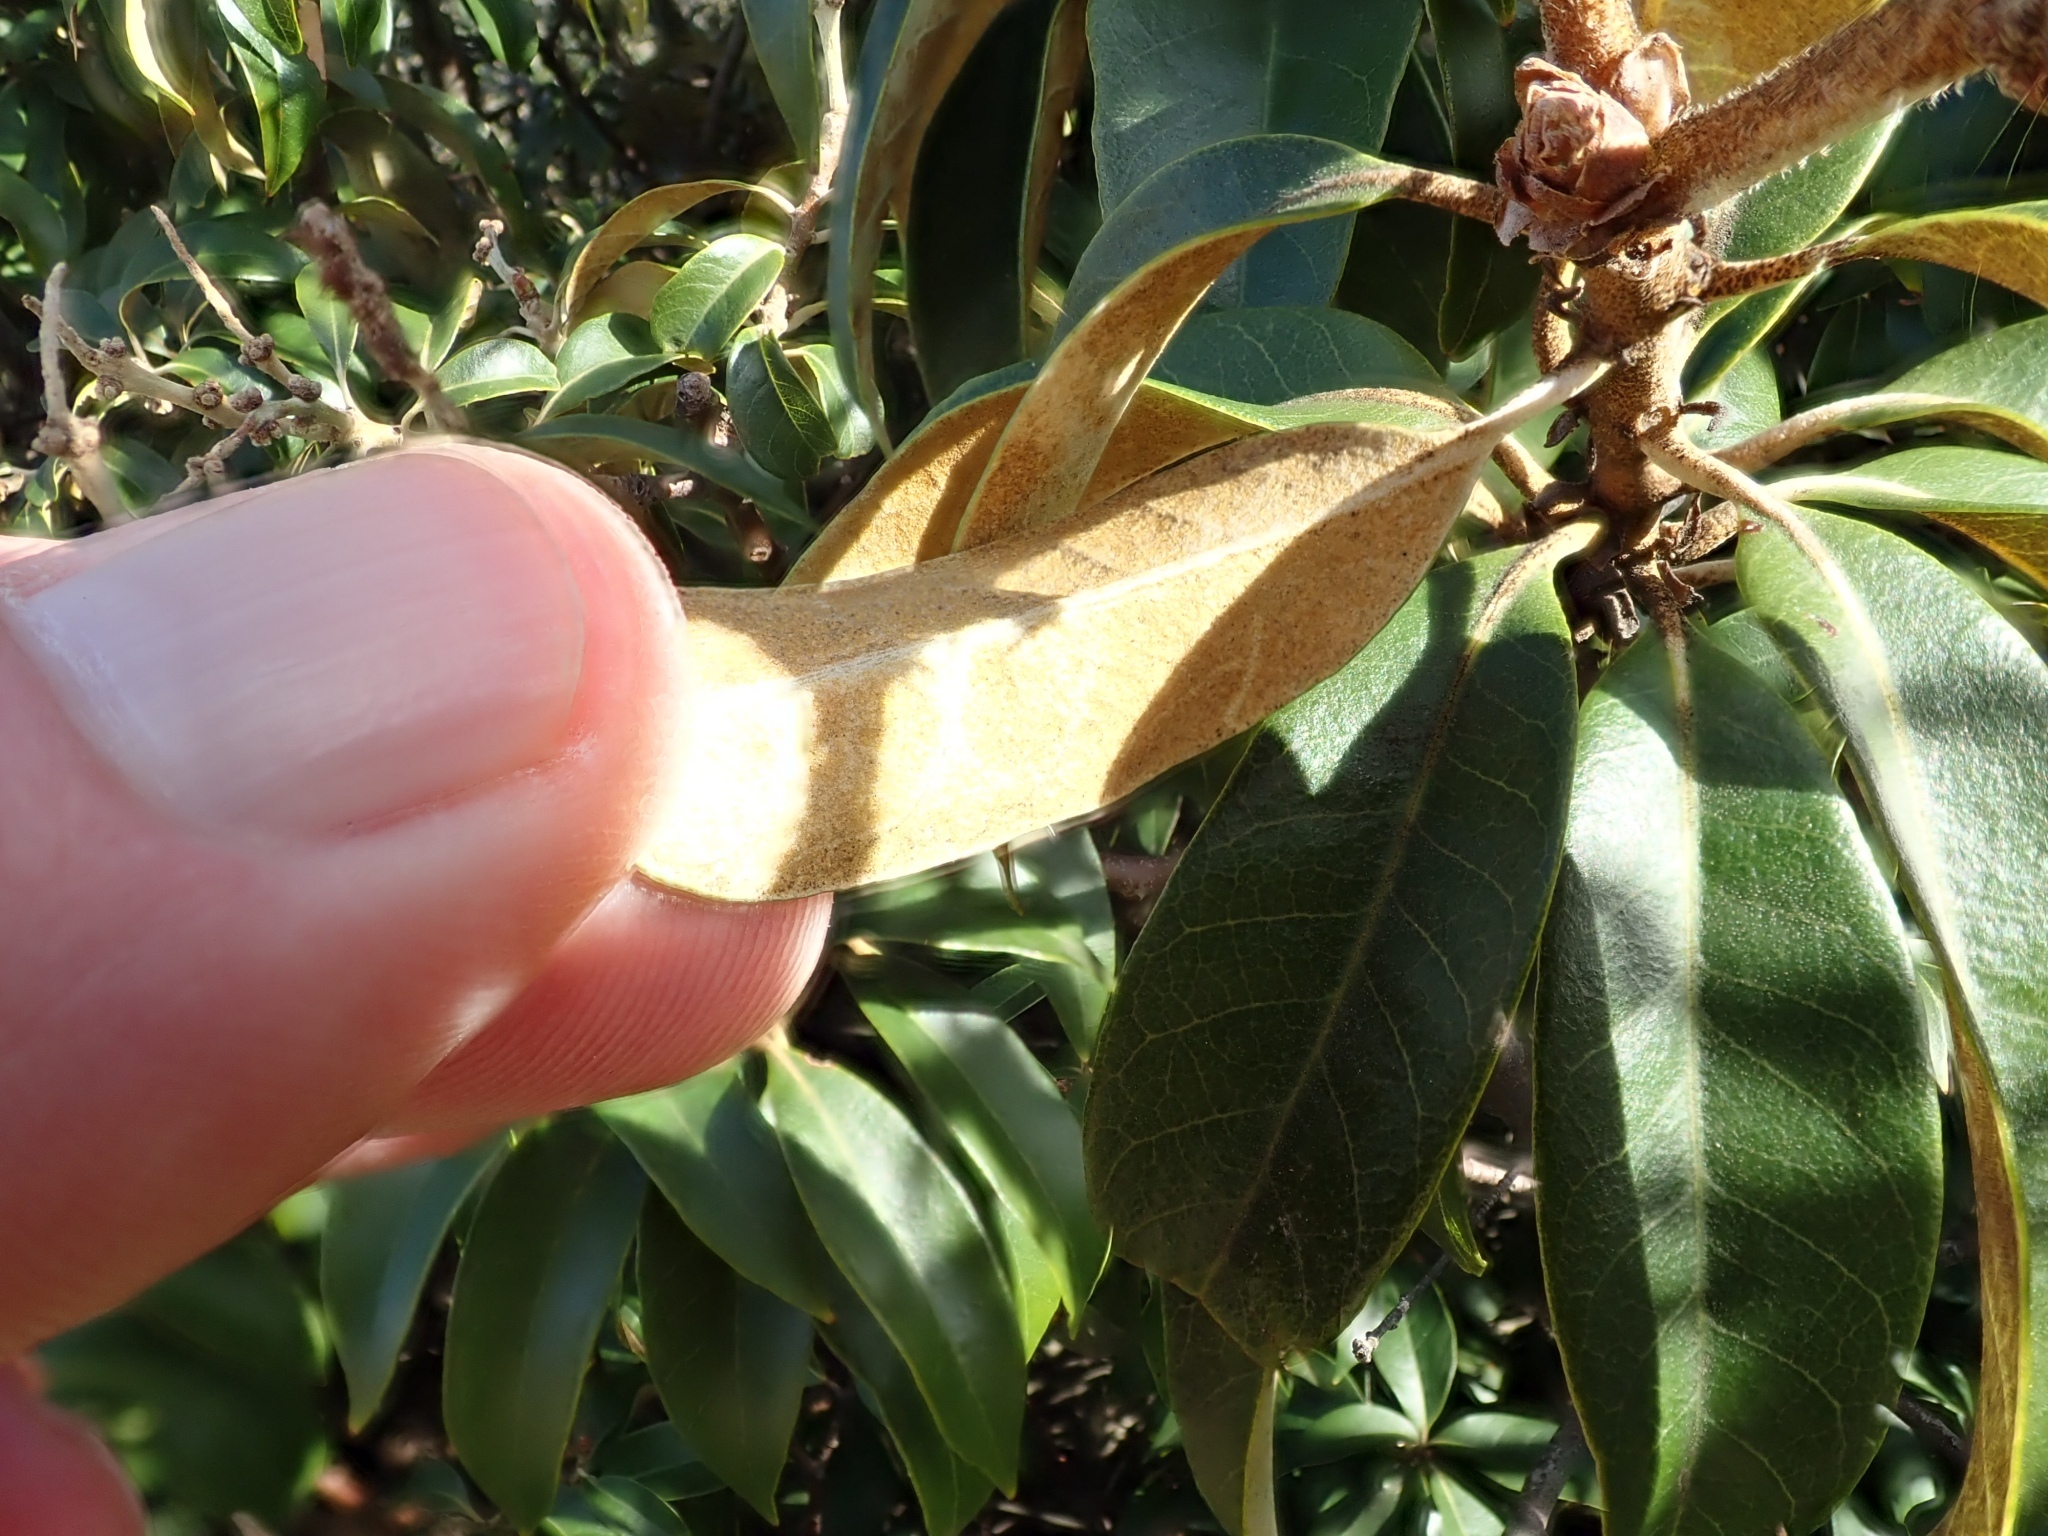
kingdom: Plantae
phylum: Tracheophyta
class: Magnoliopsida
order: Fagales
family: Fagaceae
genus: Chrysolepis
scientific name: Chrysolepis chrysophylla
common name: Giant chinquapin
